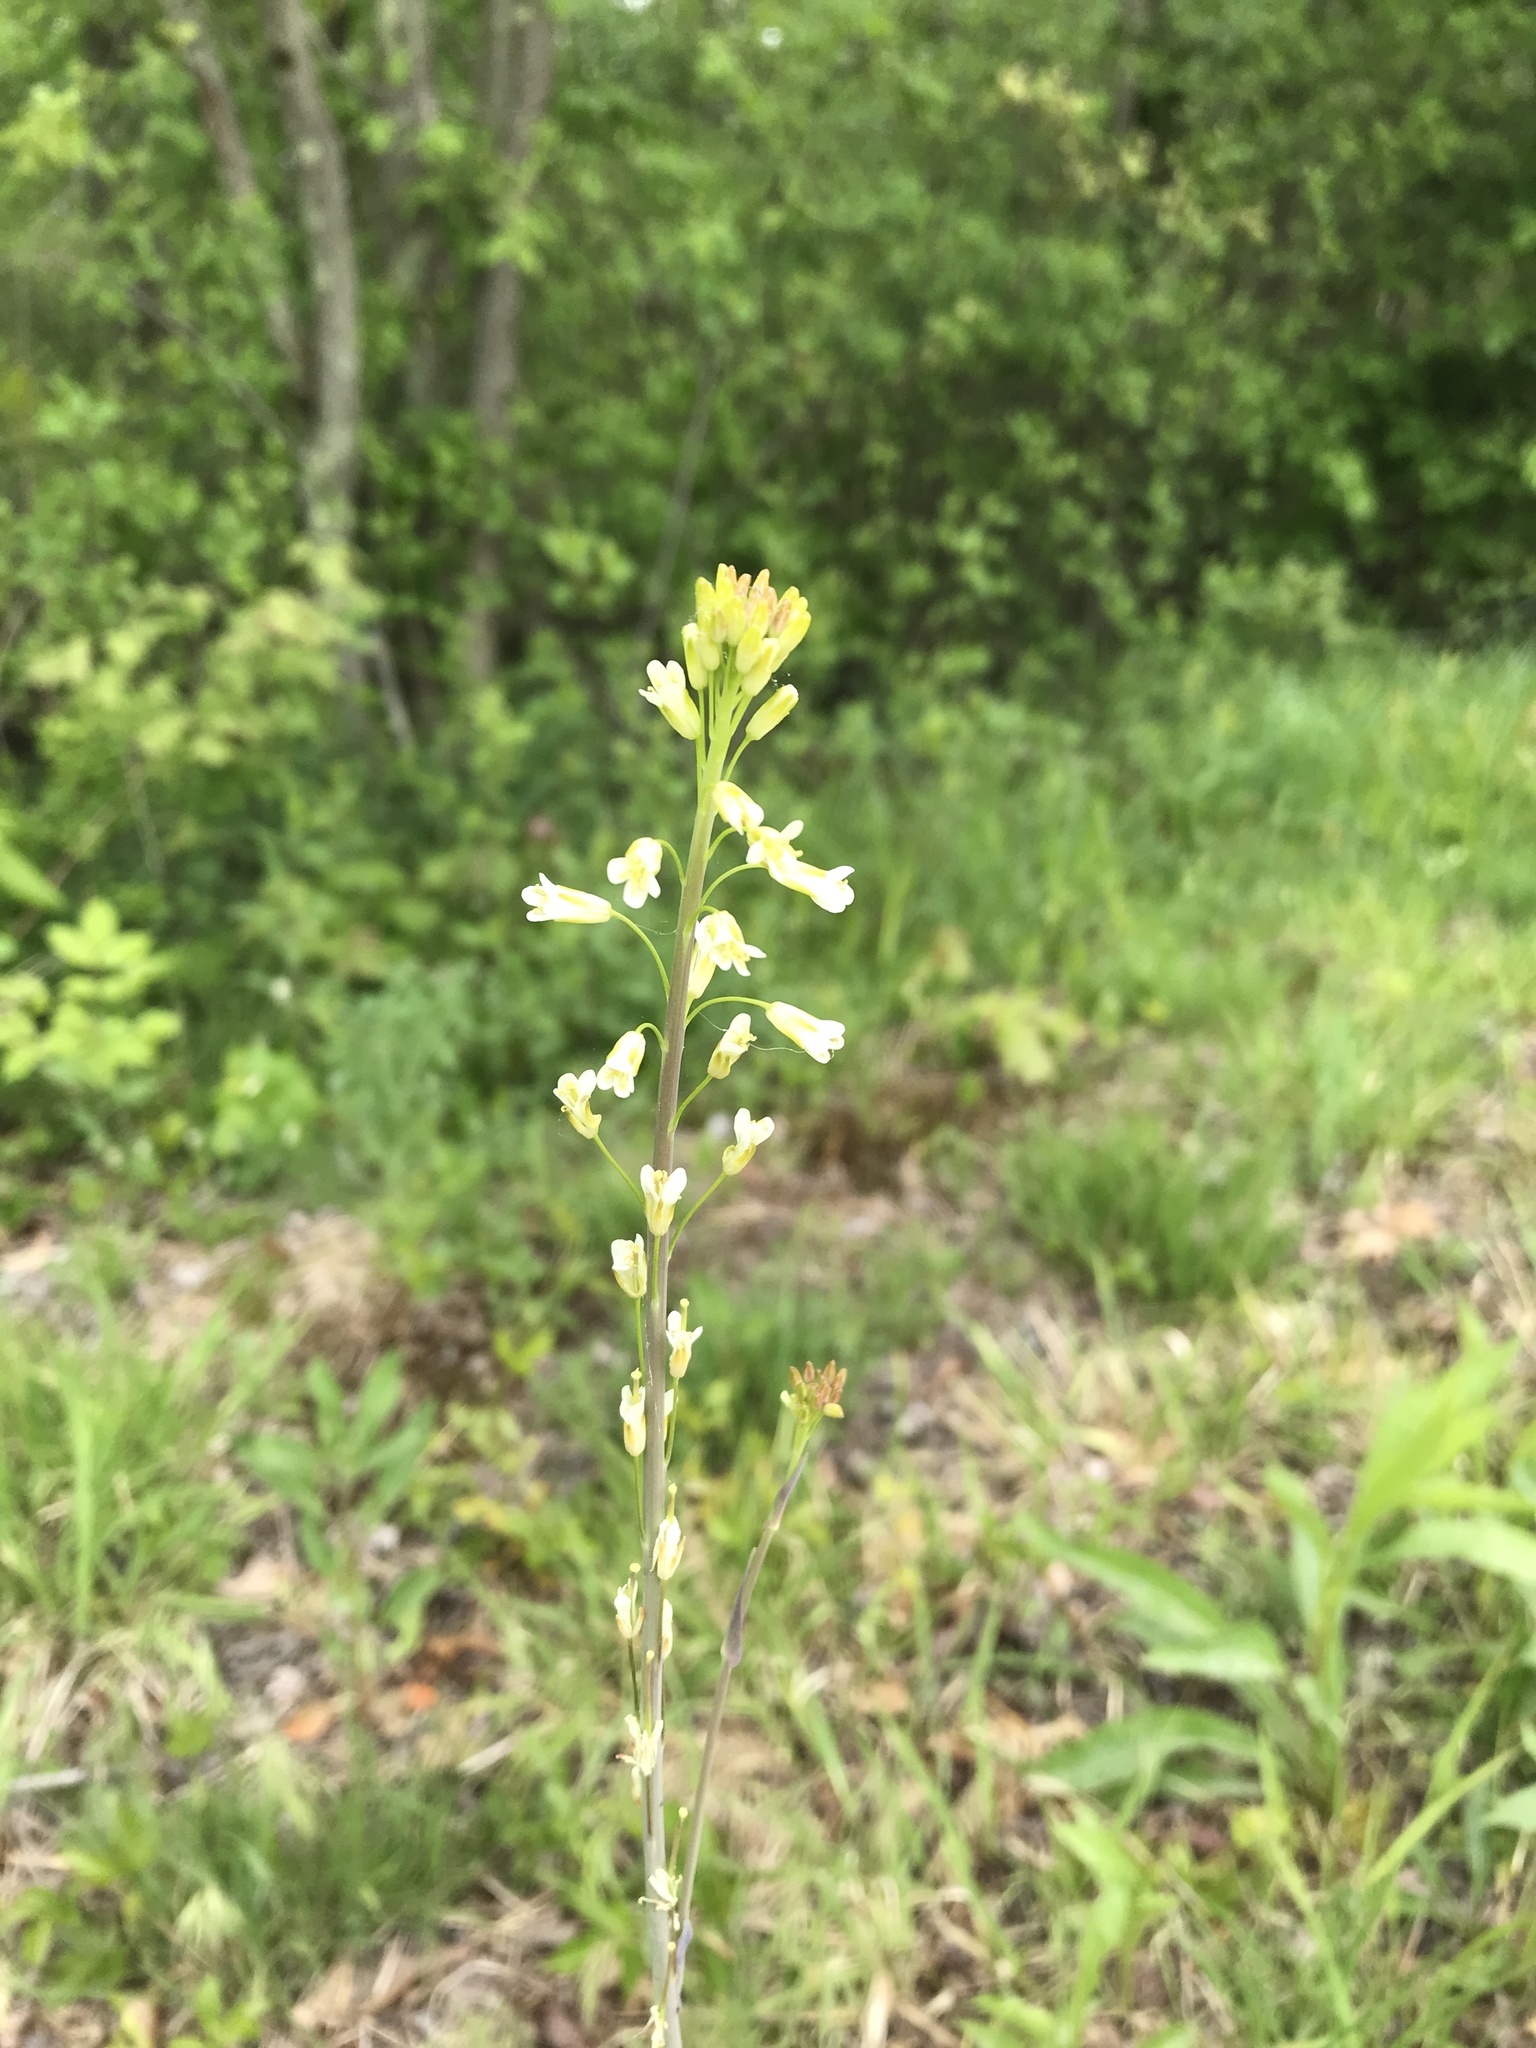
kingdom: Plantae
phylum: Tracheophyta
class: Magnoliopsida
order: Brassicales
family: Brassicaceae
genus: Turritis
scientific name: Turritis glabra
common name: Tower rockcress
